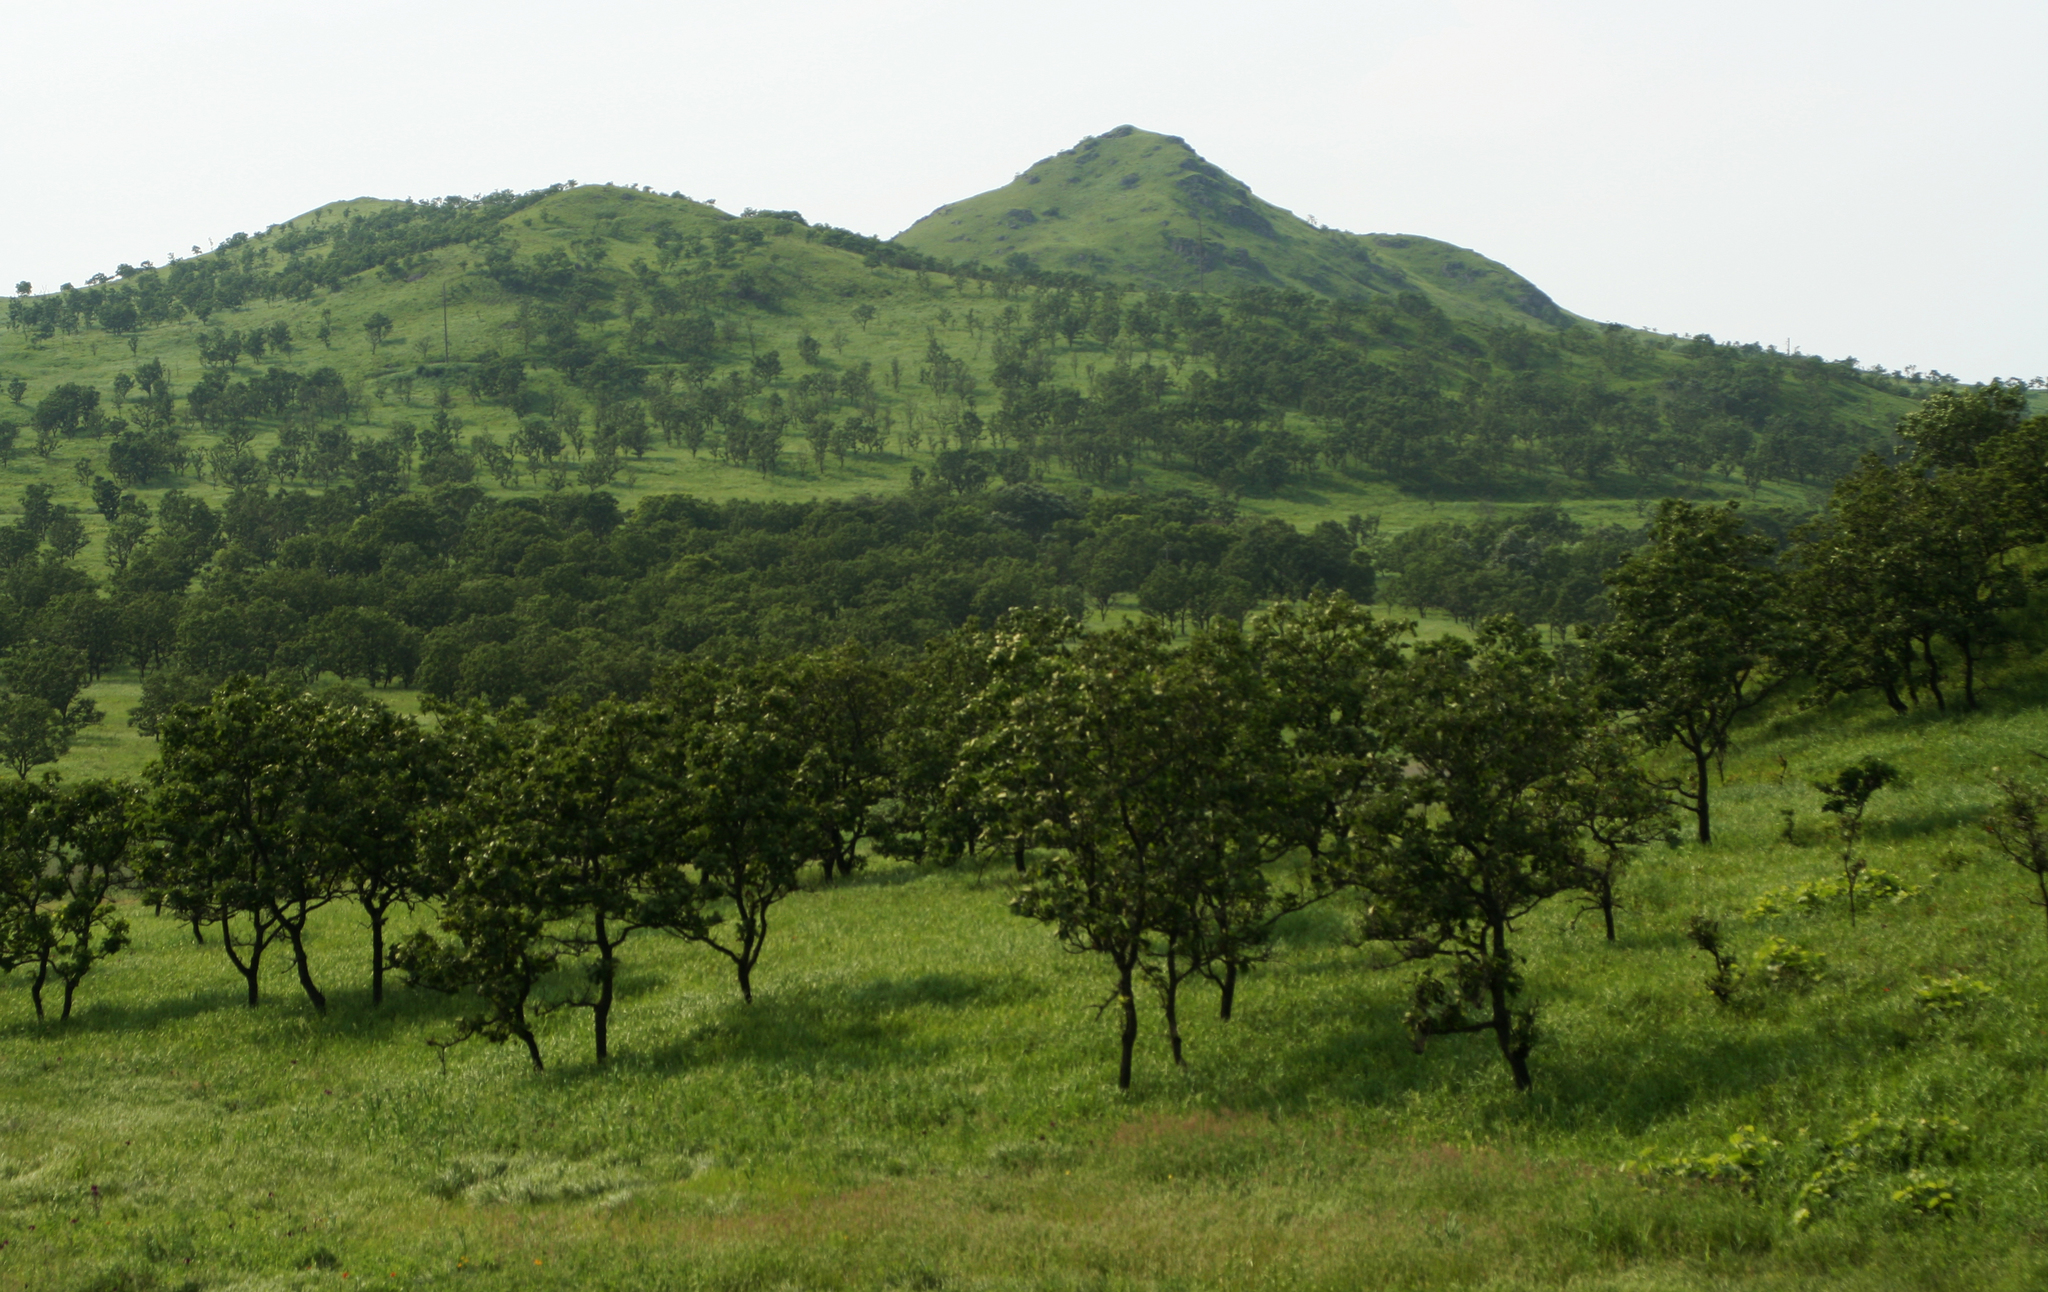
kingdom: Plantae
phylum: Tracheophyta
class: Magnoliopsida
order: Fagales
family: Fagaceae
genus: Quercus
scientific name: Quercus dentata
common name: Daimyo oak
